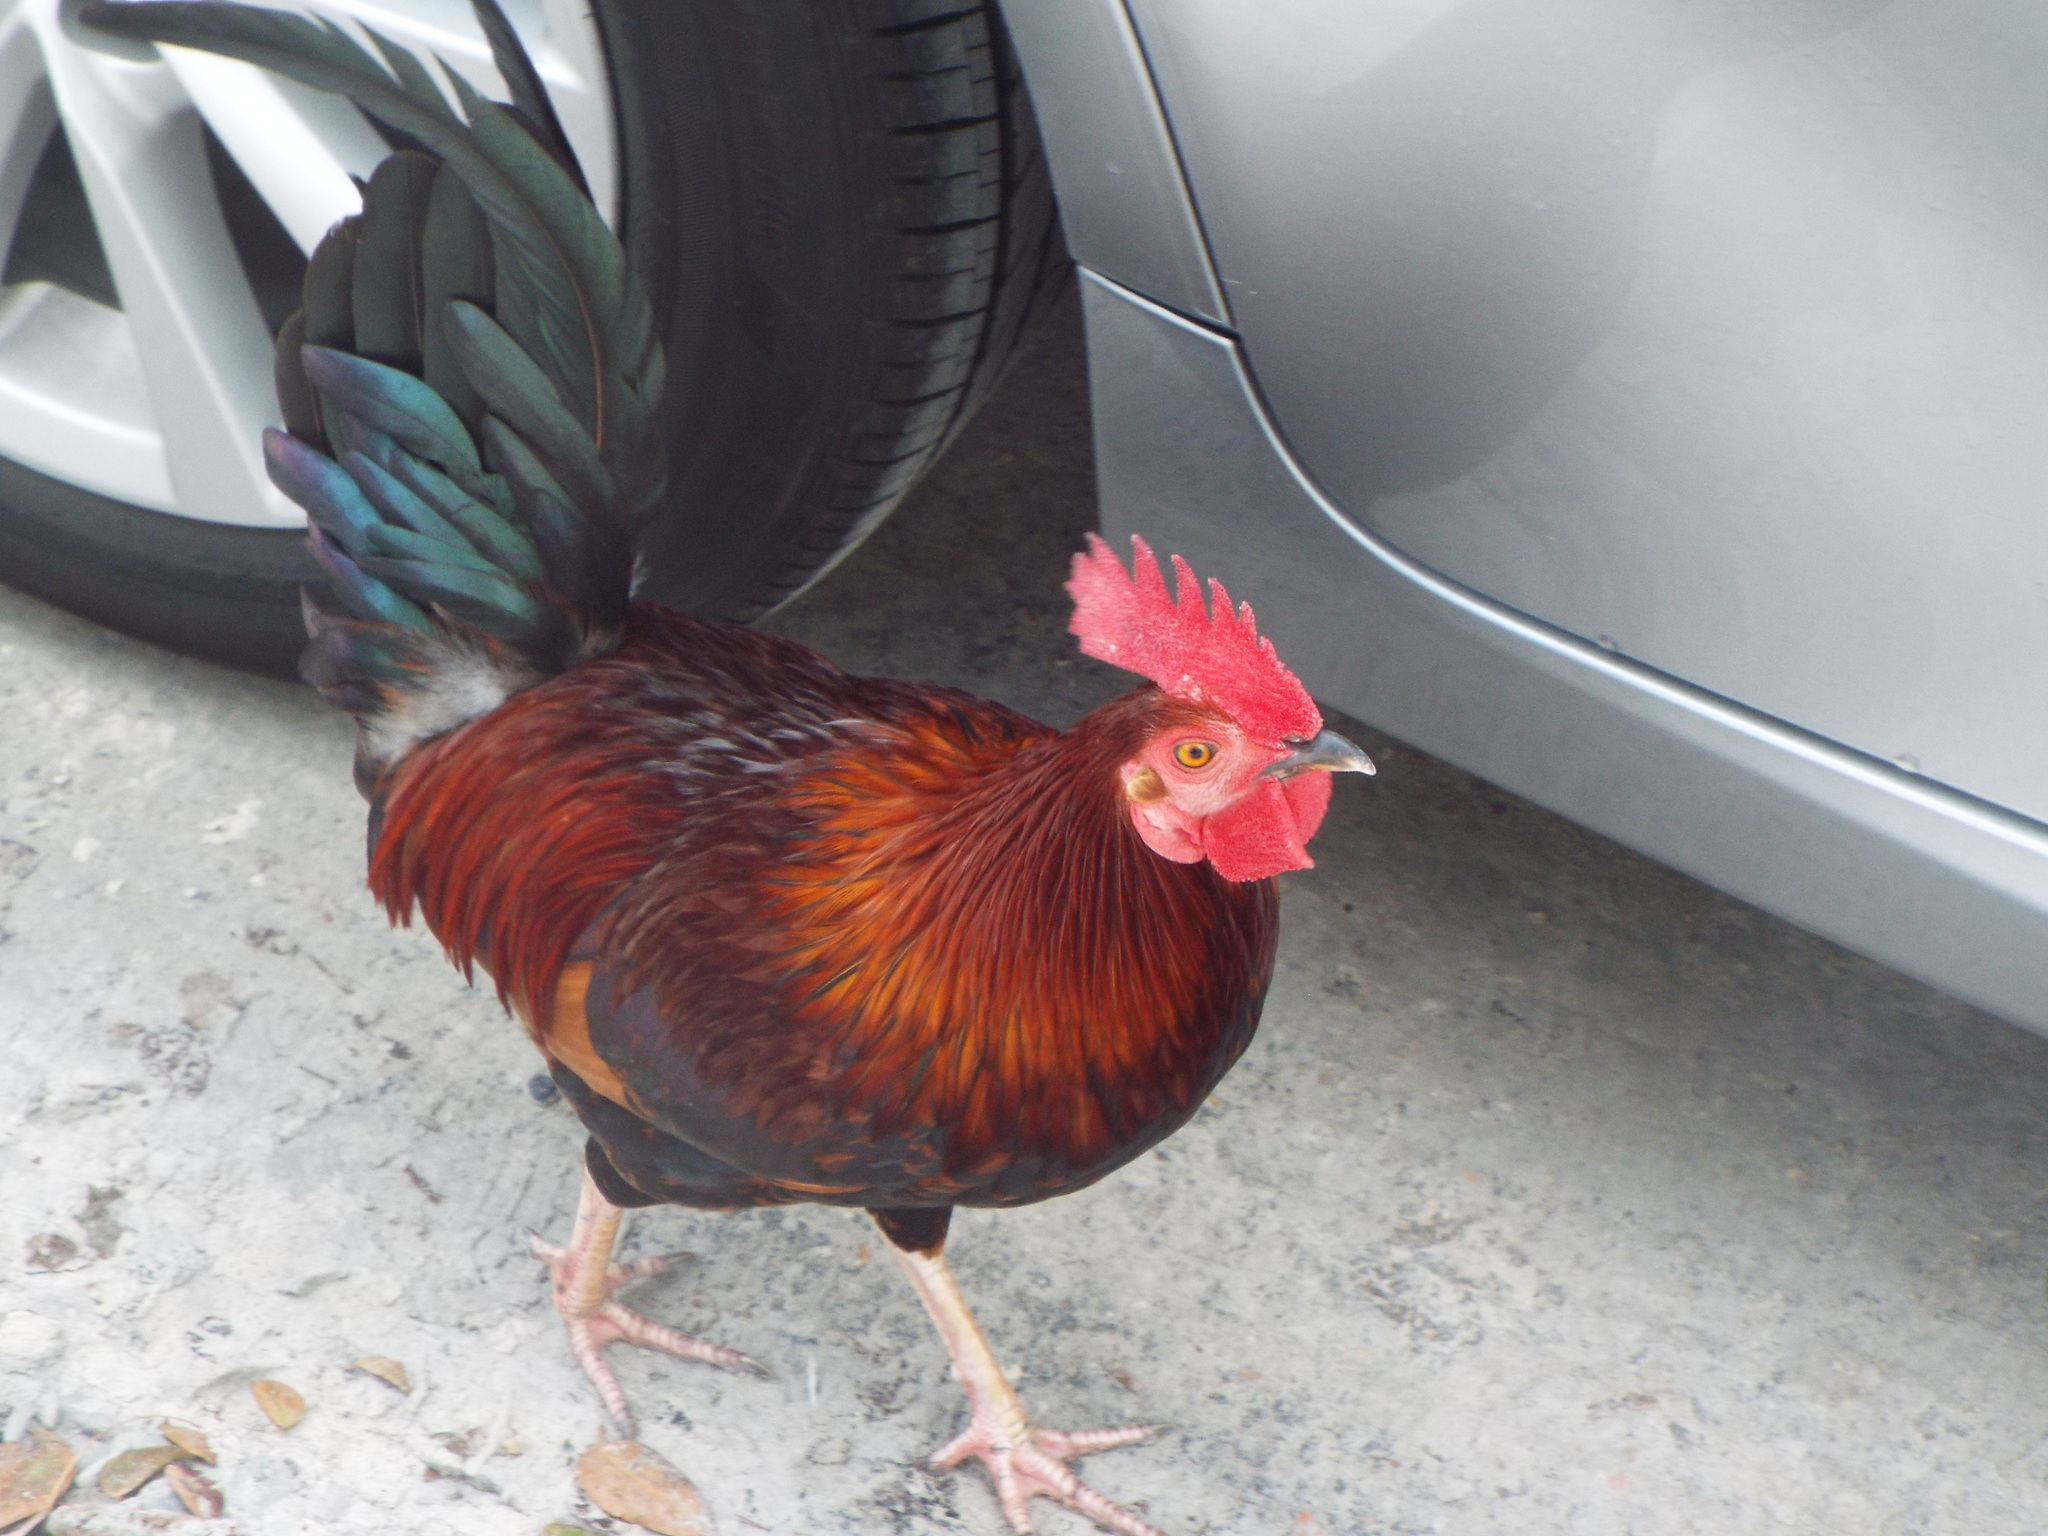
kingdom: Animalia
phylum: Chordata
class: Aves
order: Galliformes
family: Phasianidae
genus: Gallus
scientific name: Gallus gallus
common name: Red junglefowl
